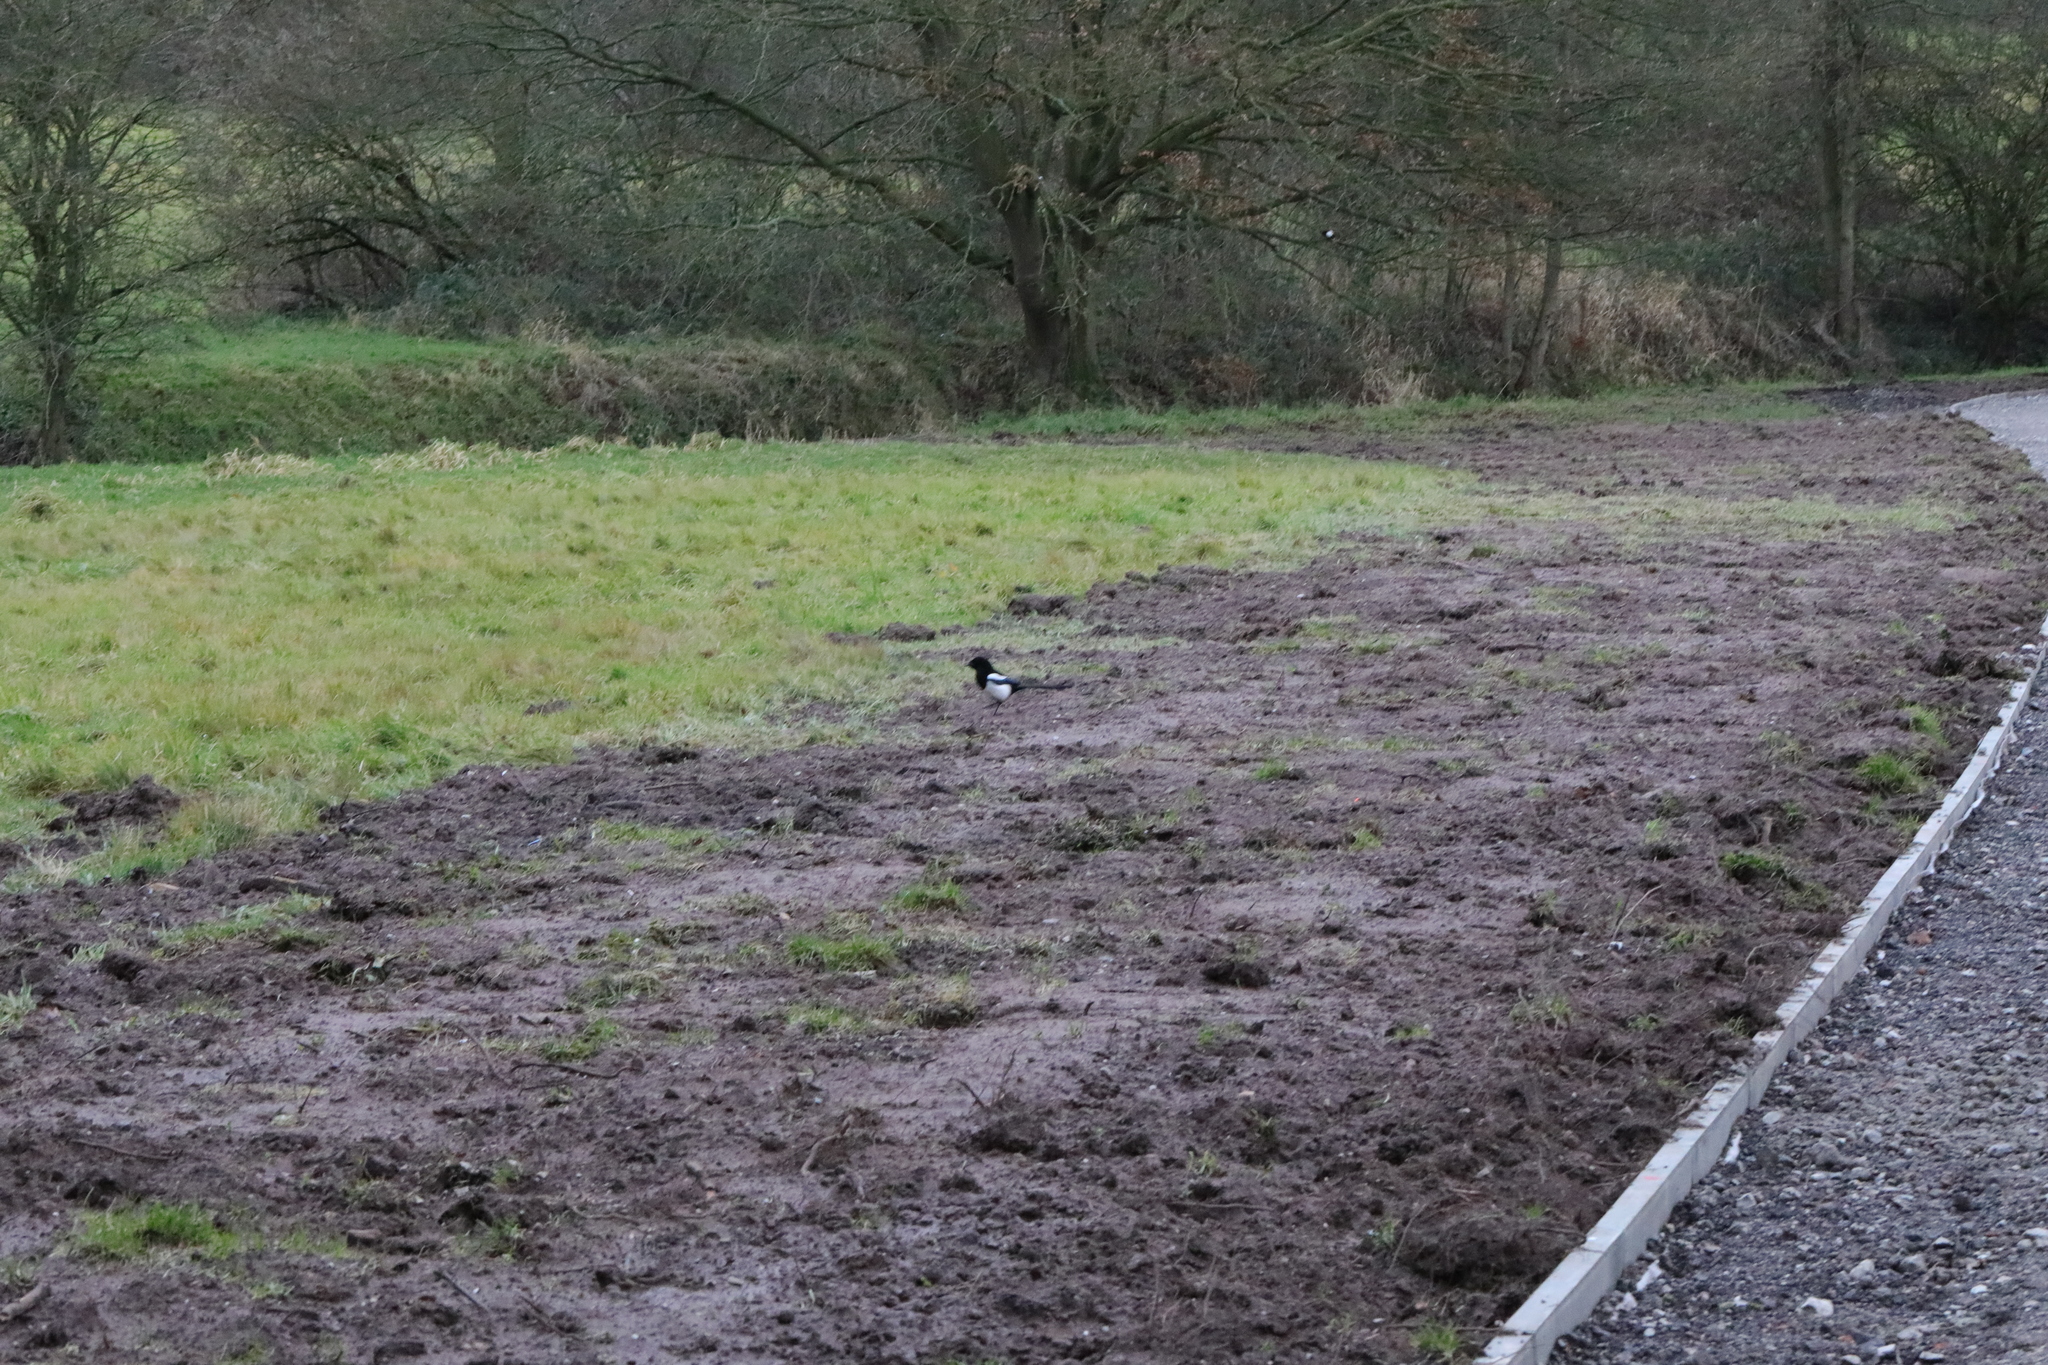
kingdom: Animalia
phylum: Chordata
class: Aves
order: Passeriformes
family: Corvidae
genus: Pica
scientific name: Pica pica
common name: Eurasian magpie
